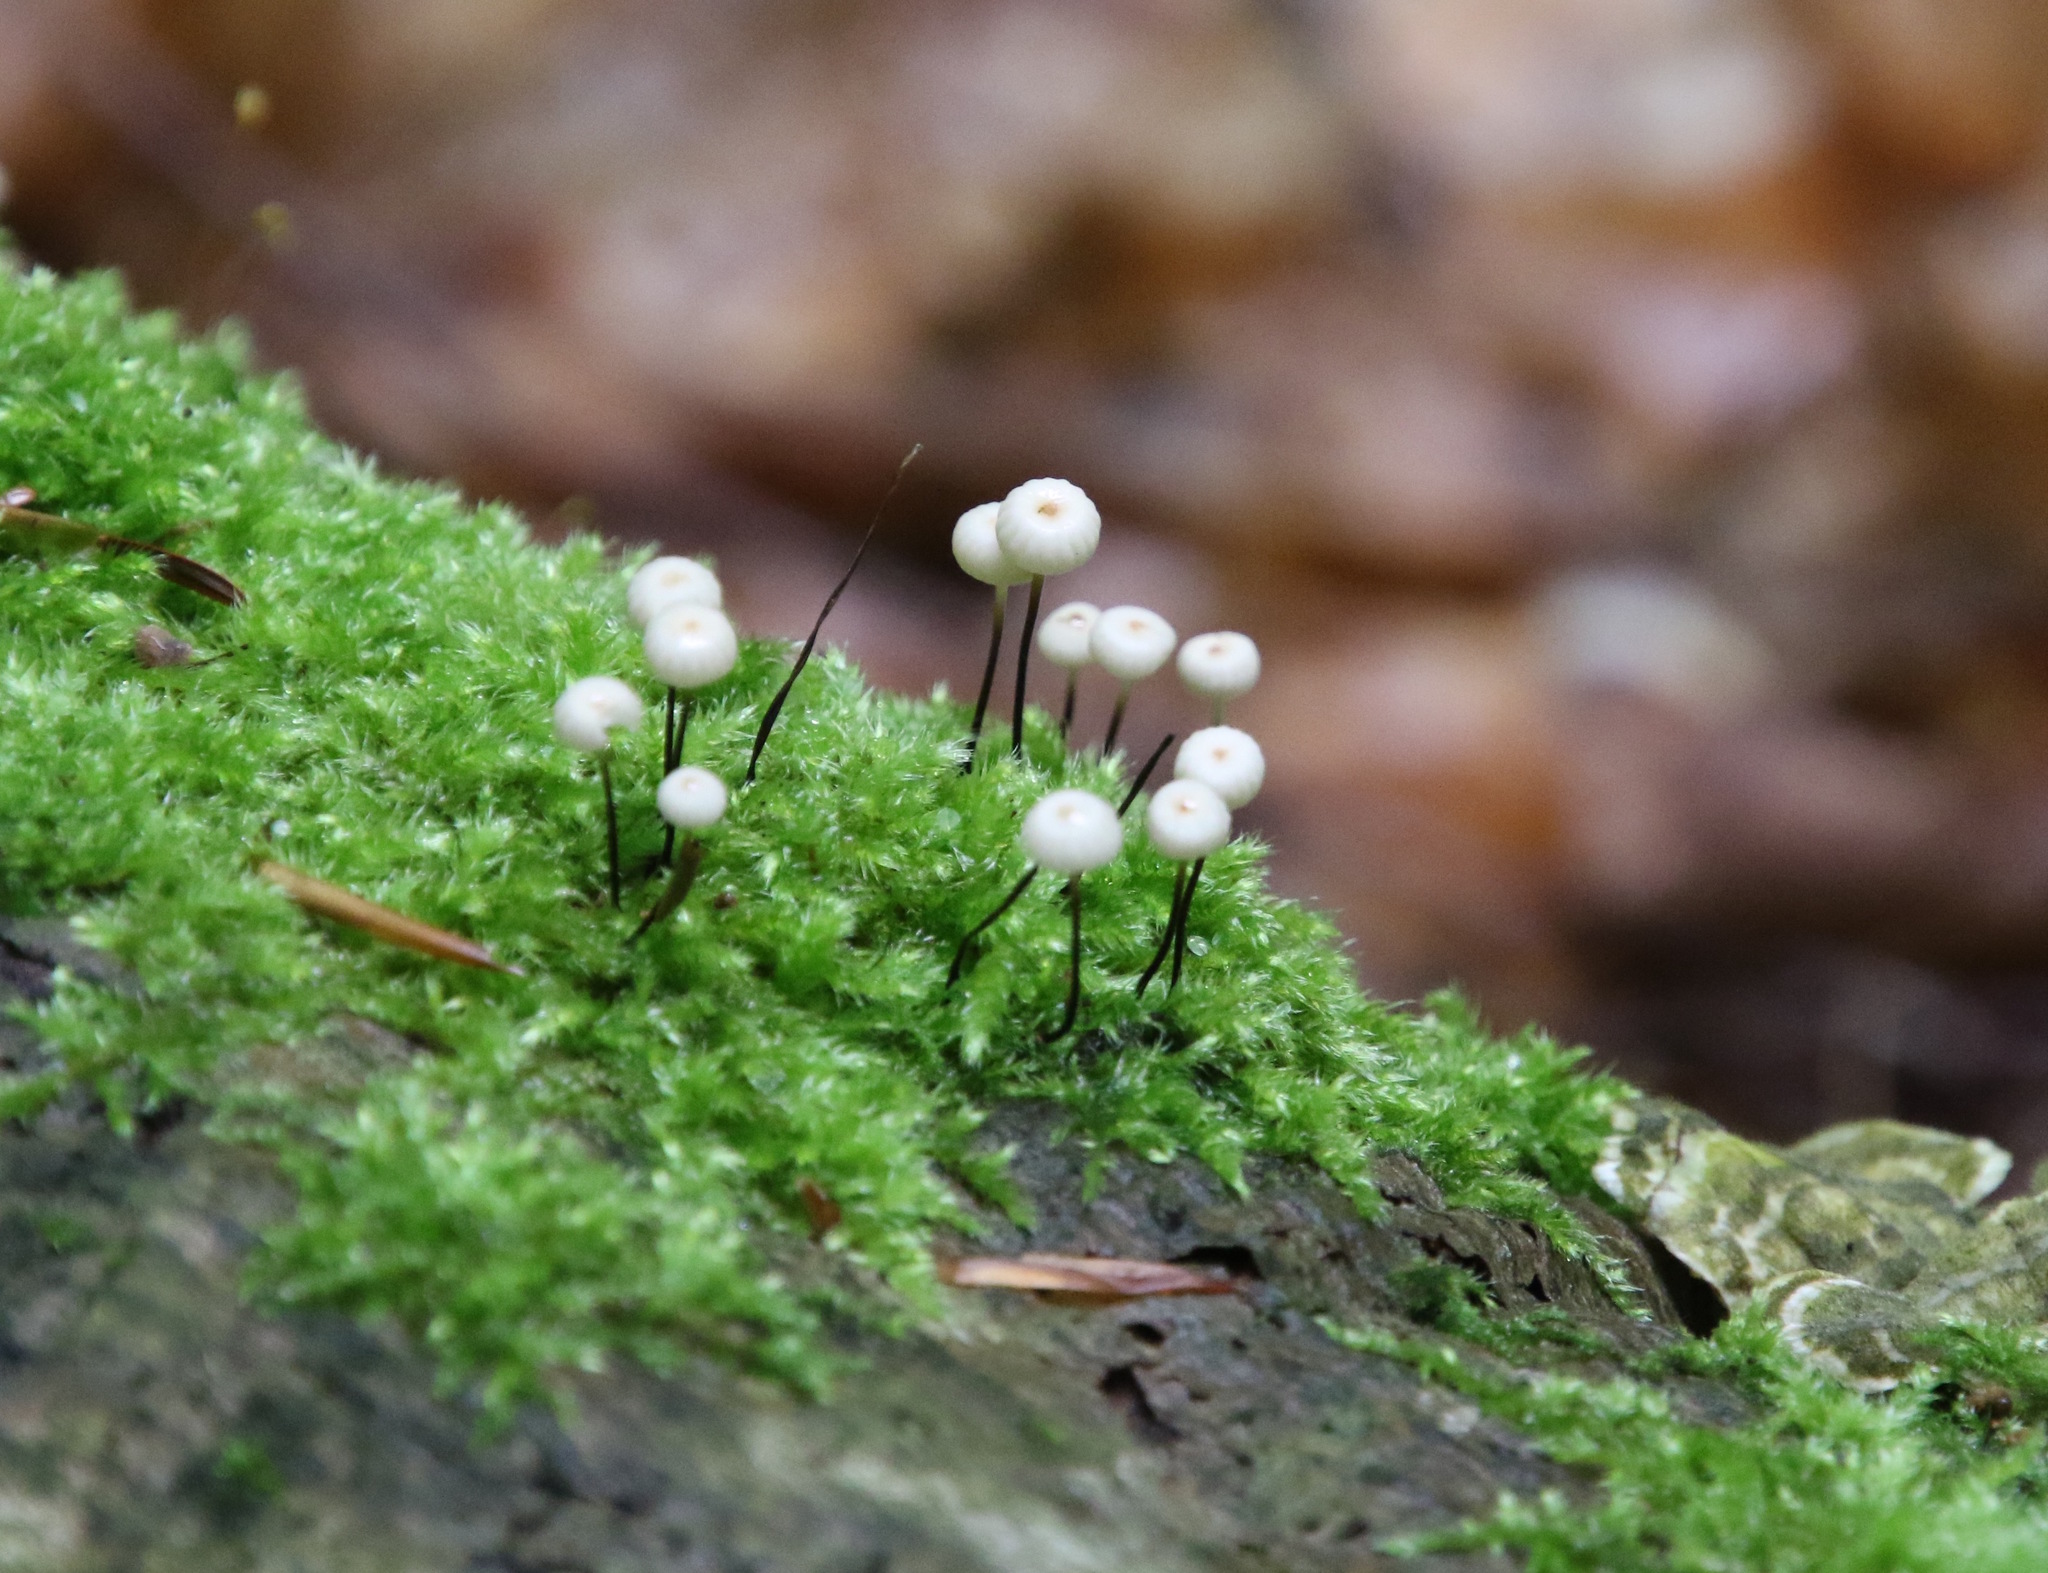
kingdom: Fungi
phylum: Basidiomycota
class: Agaricomycetes
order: Agaricales
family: Marasmiaceae
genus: Marasmius
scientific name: Marasmius rotula
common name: Collared parachute
